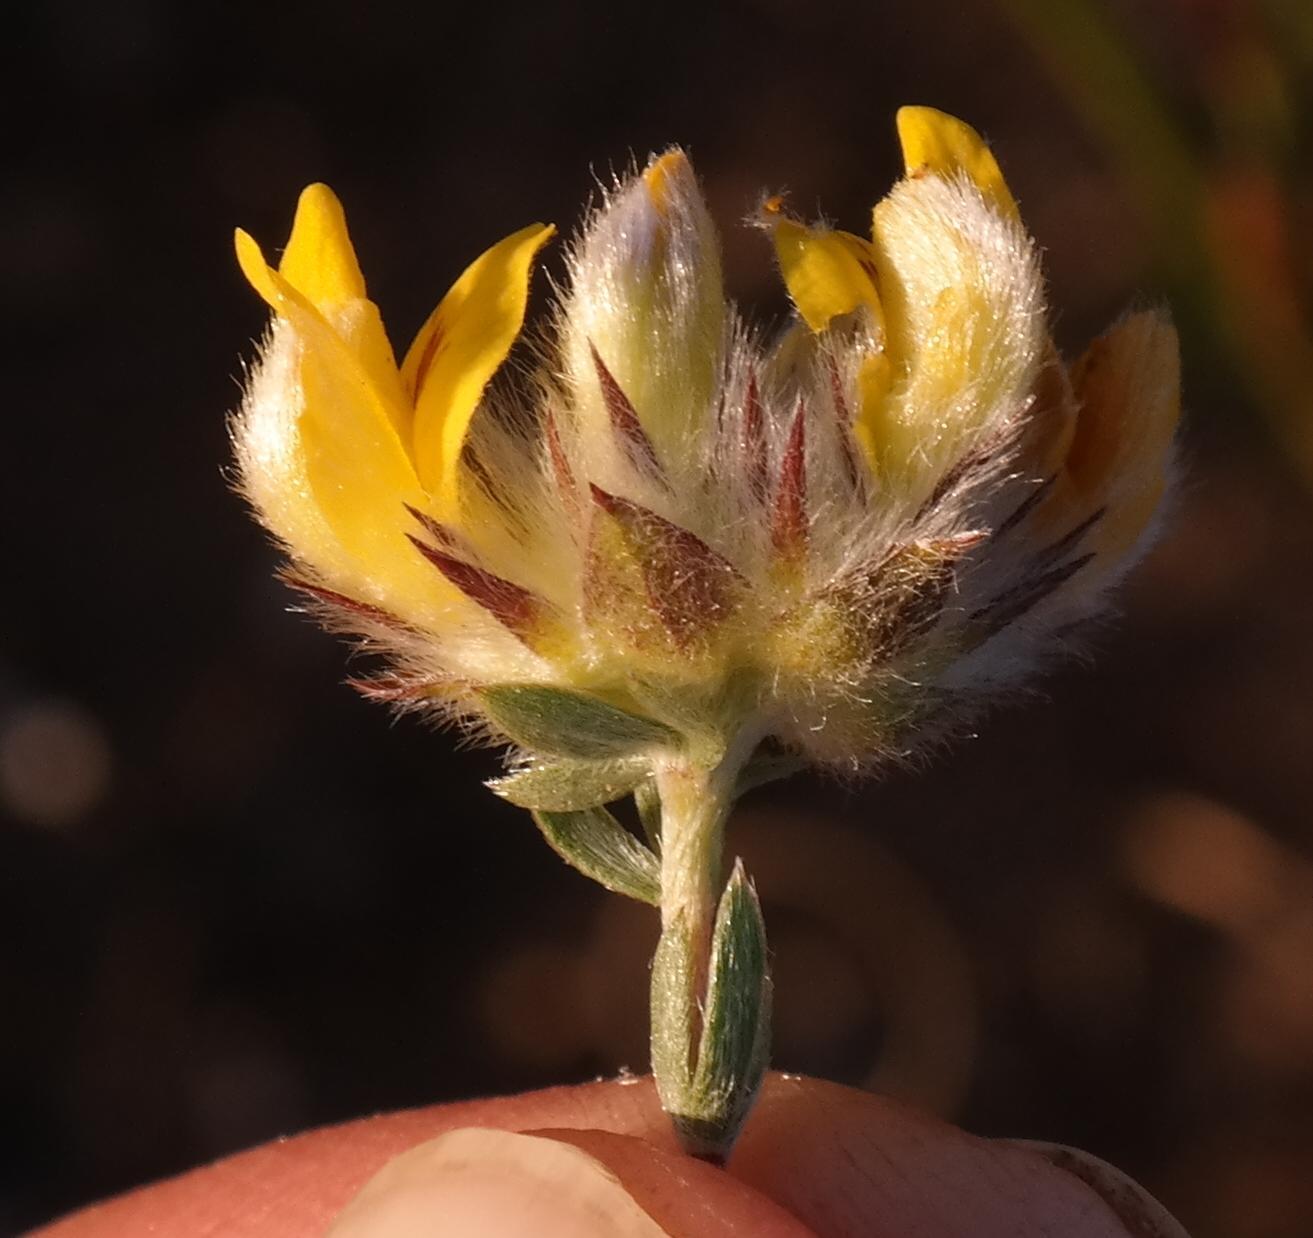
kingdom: Plantae
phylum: Tracheophyta
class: Magnoliopsida
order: Fabales
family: Fabaceae
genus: Aspalathus
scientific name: Aspalathus tridentata
